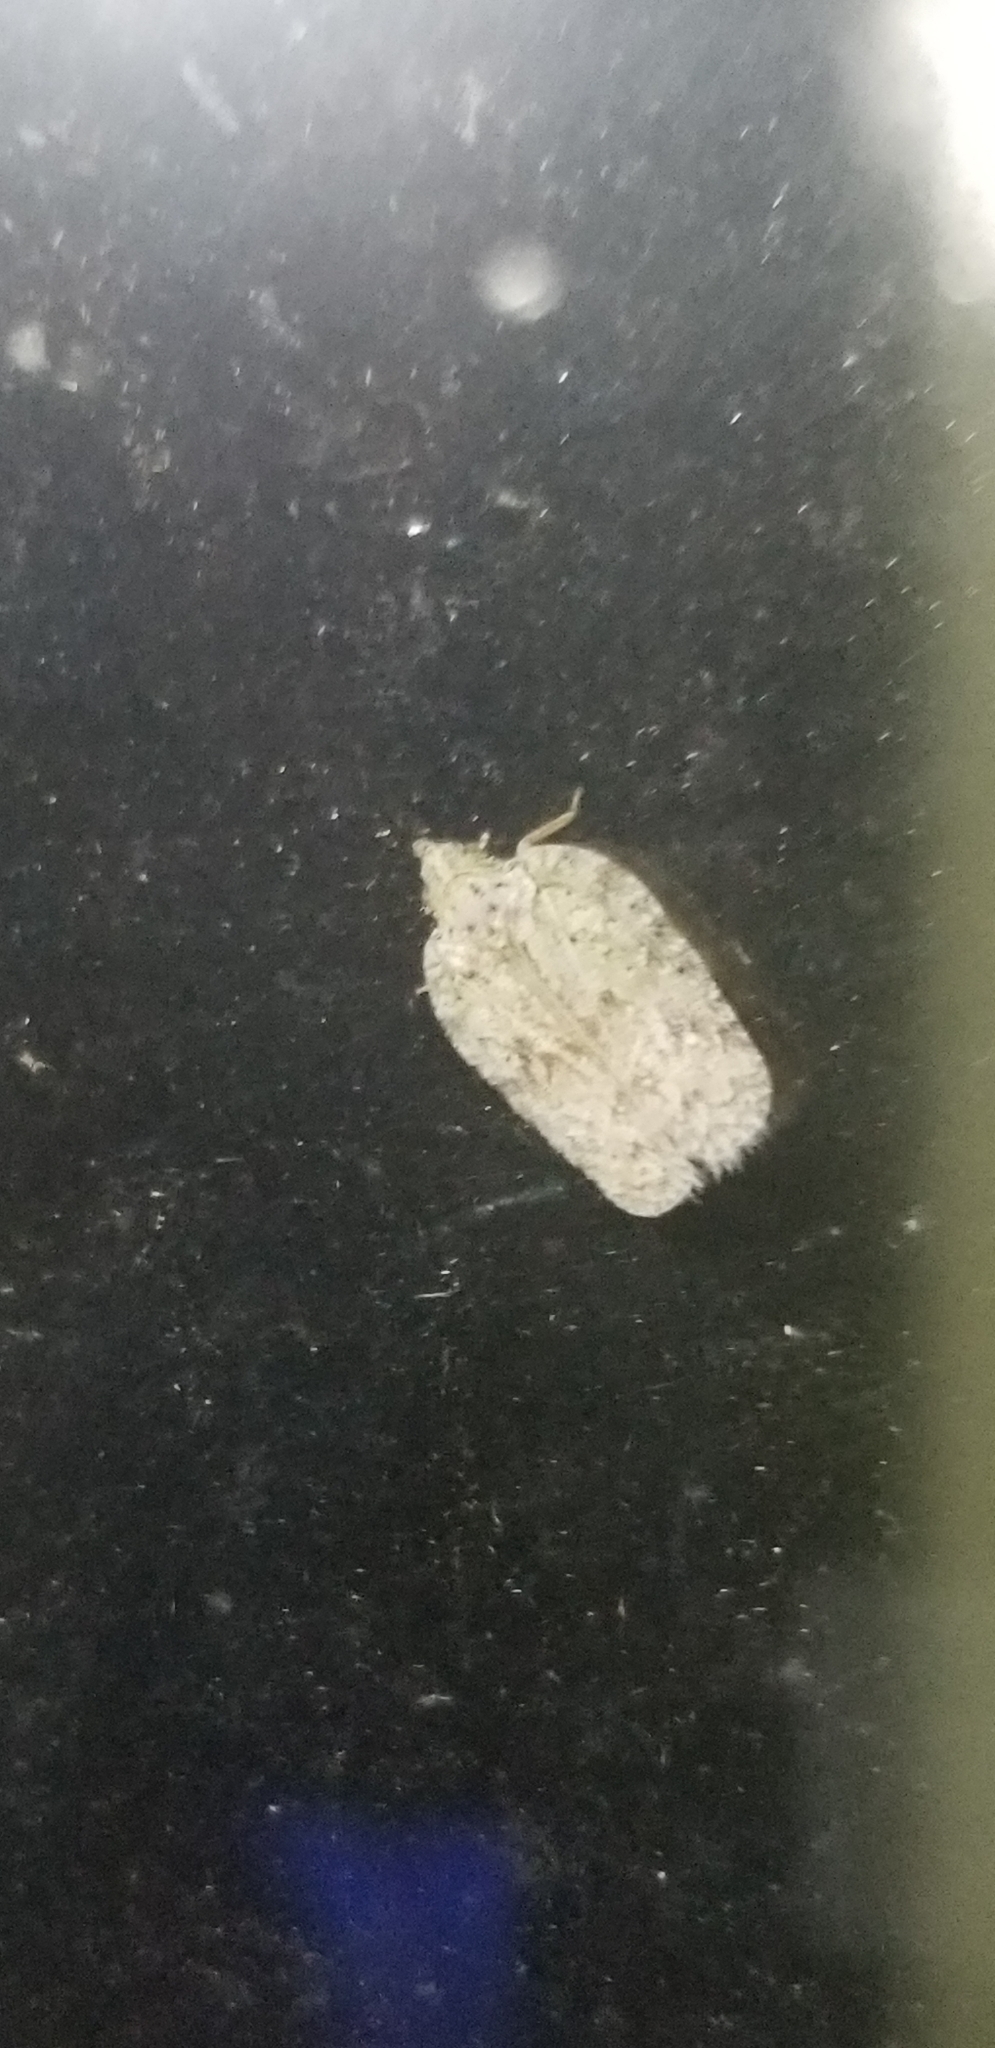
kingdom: Animalia
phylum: Arthropoda
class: Insecta
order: Hemiptera
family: Flatidae
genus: Flatoidinus
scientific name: Flatoidinus punctatus
